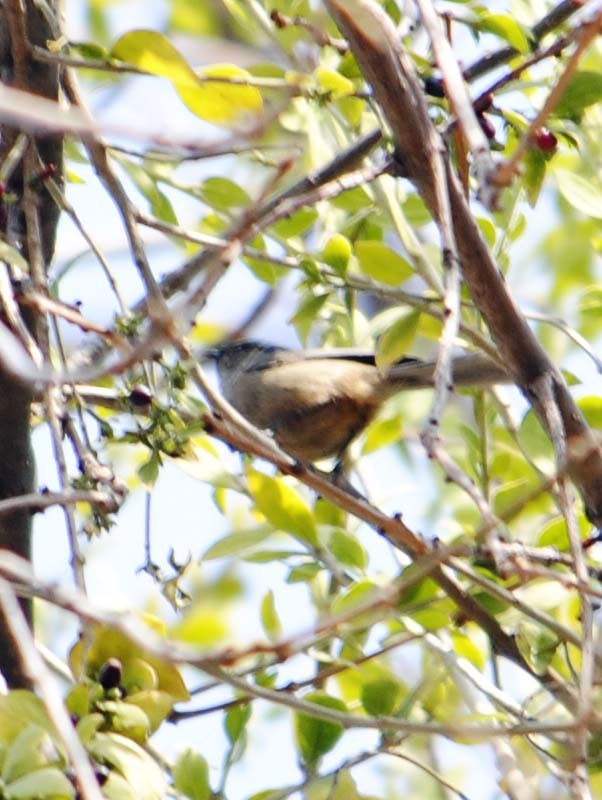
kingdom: Animalia
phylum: Chordata
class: Aves
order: Passeriformes
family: Aegithalidae
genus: Psaltriparus
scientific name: Psaltriparus minimus
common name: American bushtit
